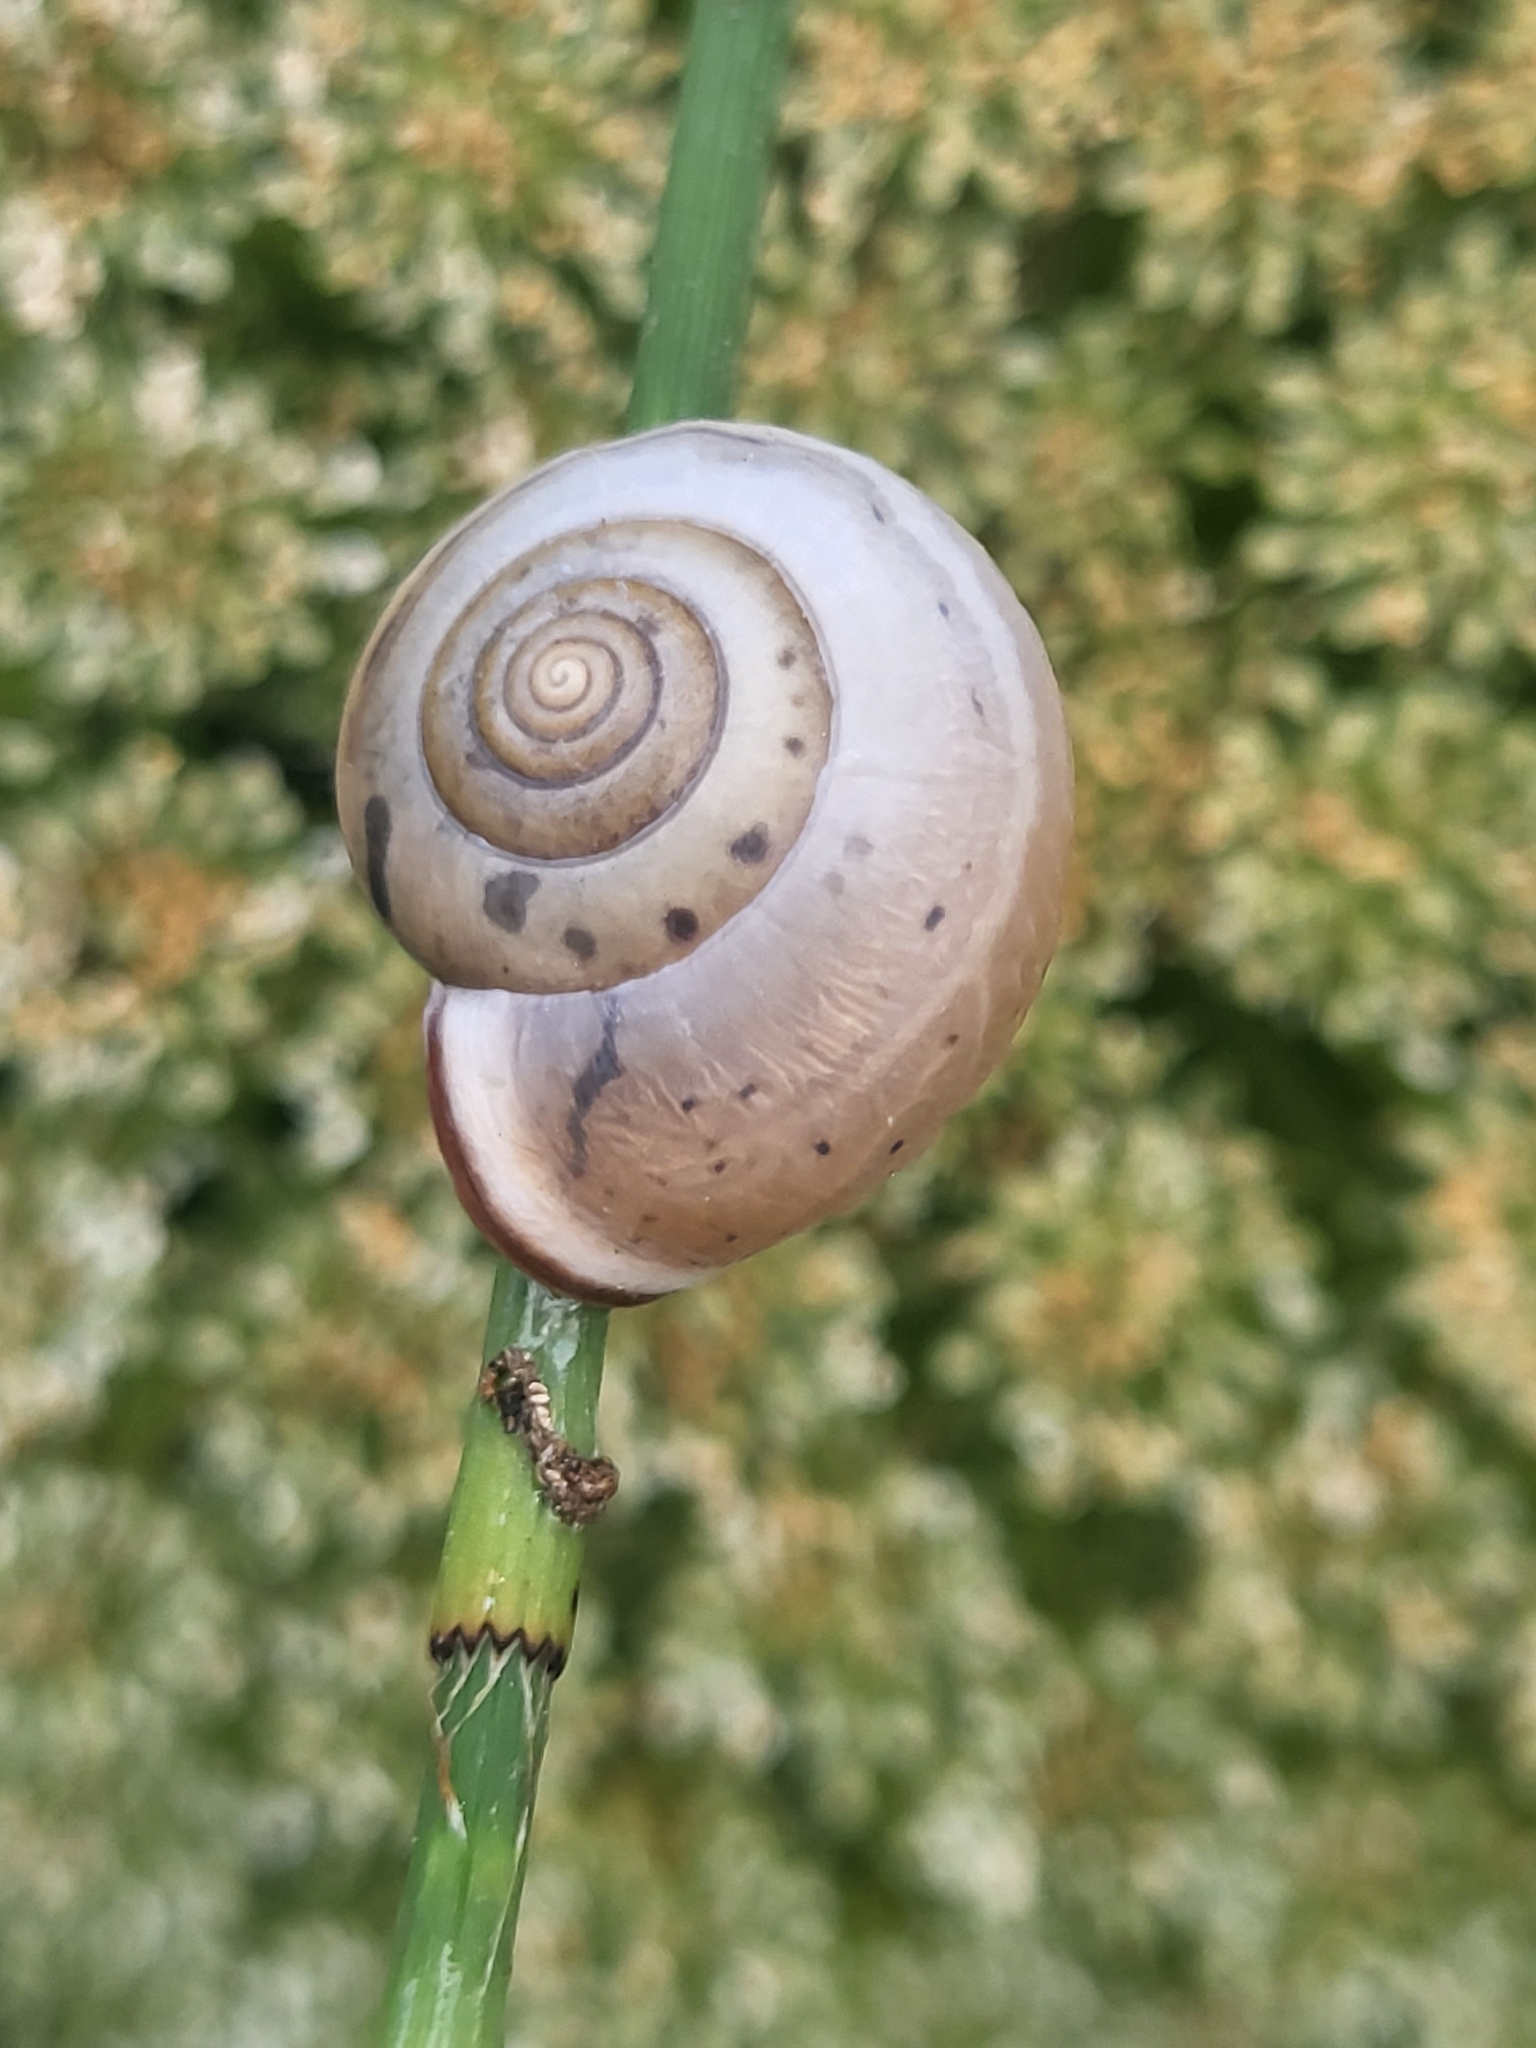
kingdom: Animalia
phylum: Mollusca
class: Gastropoda
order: Stylommatophora
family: Hygromiidae
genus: Monacha
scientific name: Monacha
